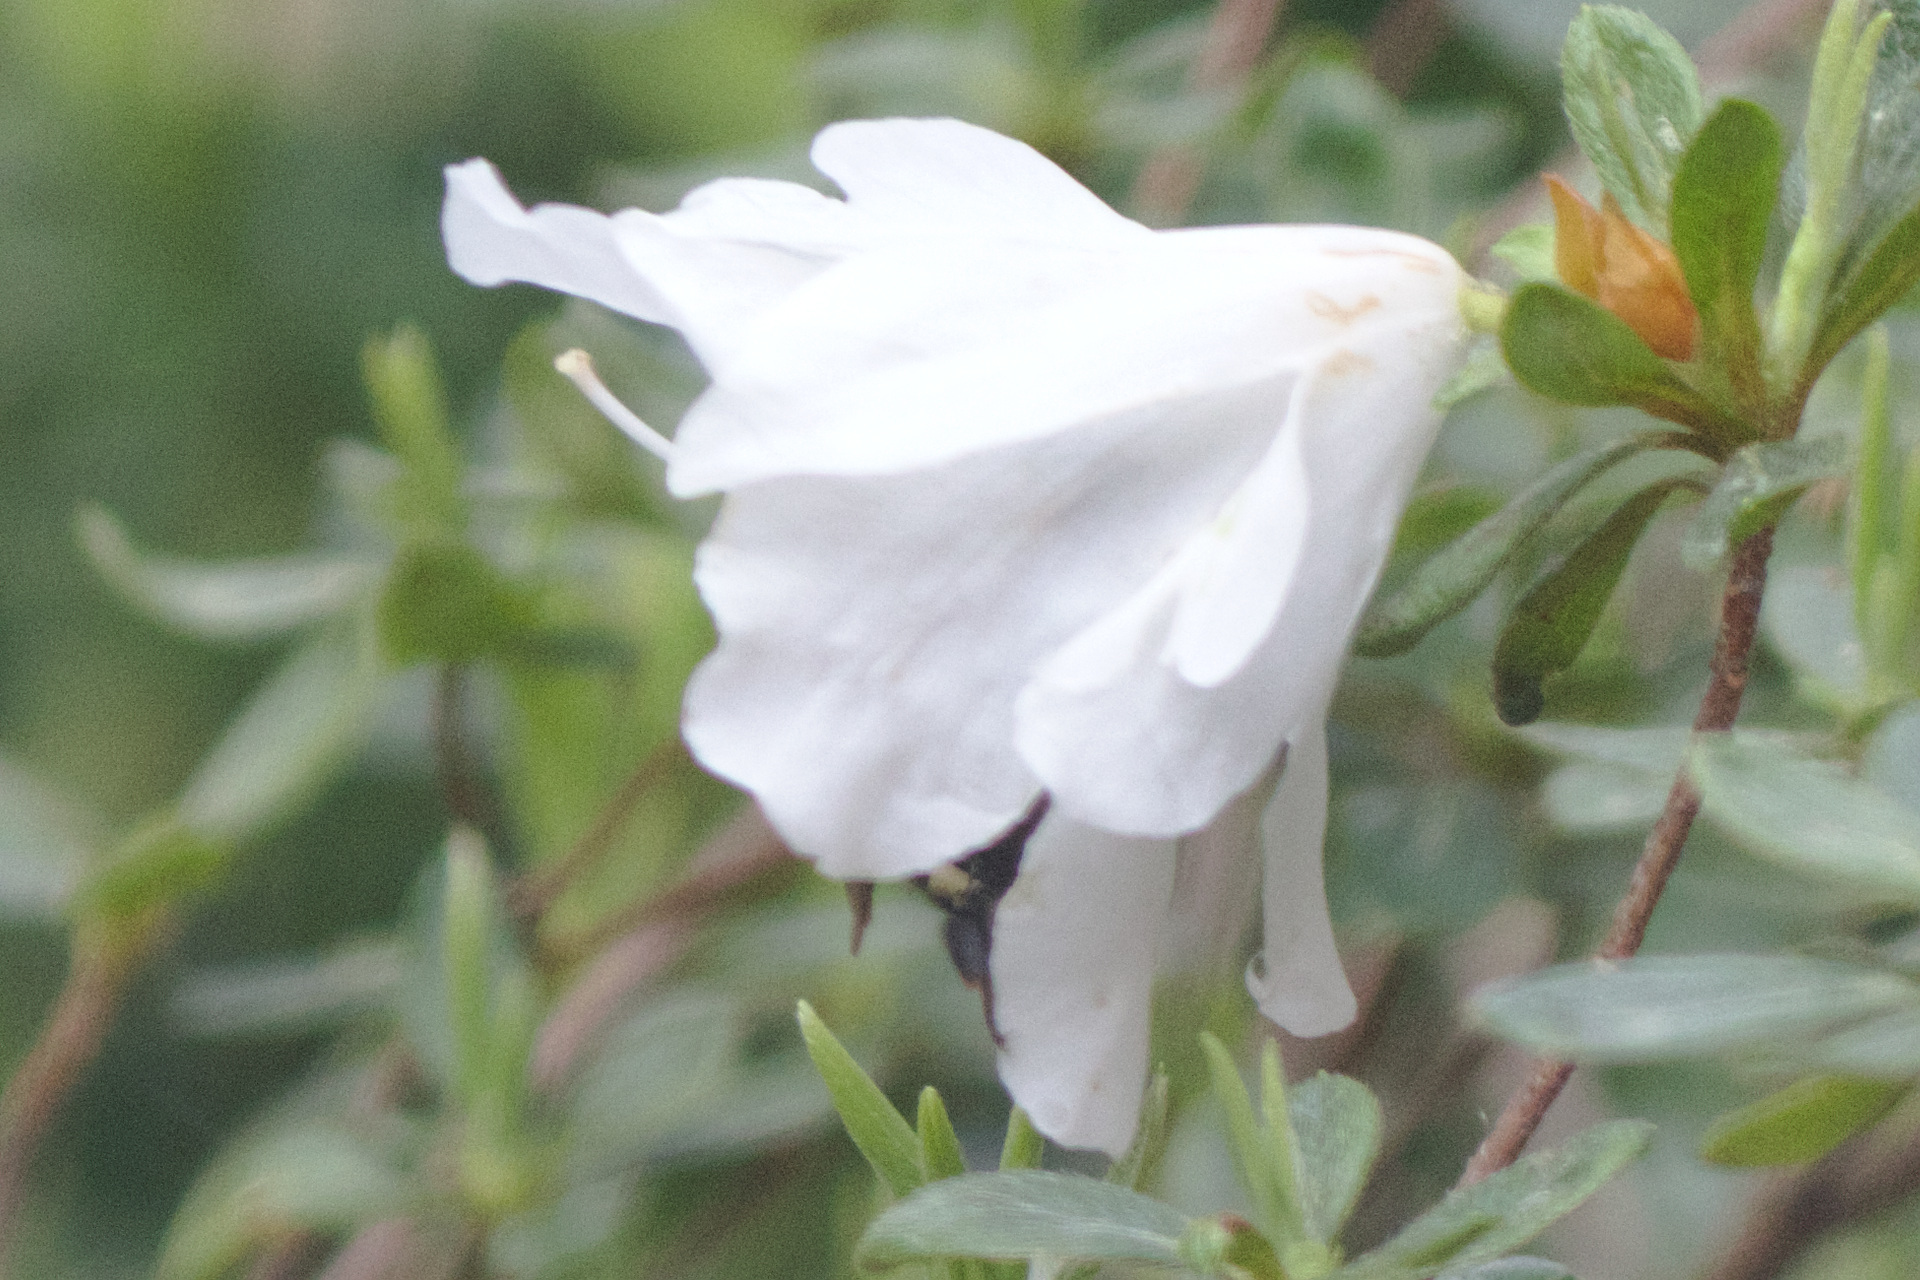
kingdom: Animalia
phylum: Arthropoda
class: Insecta
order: Hymenoptera
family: Apidae
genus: Bombus
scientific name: Bombus bimaculatus
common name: Two-spotted bumble bee
